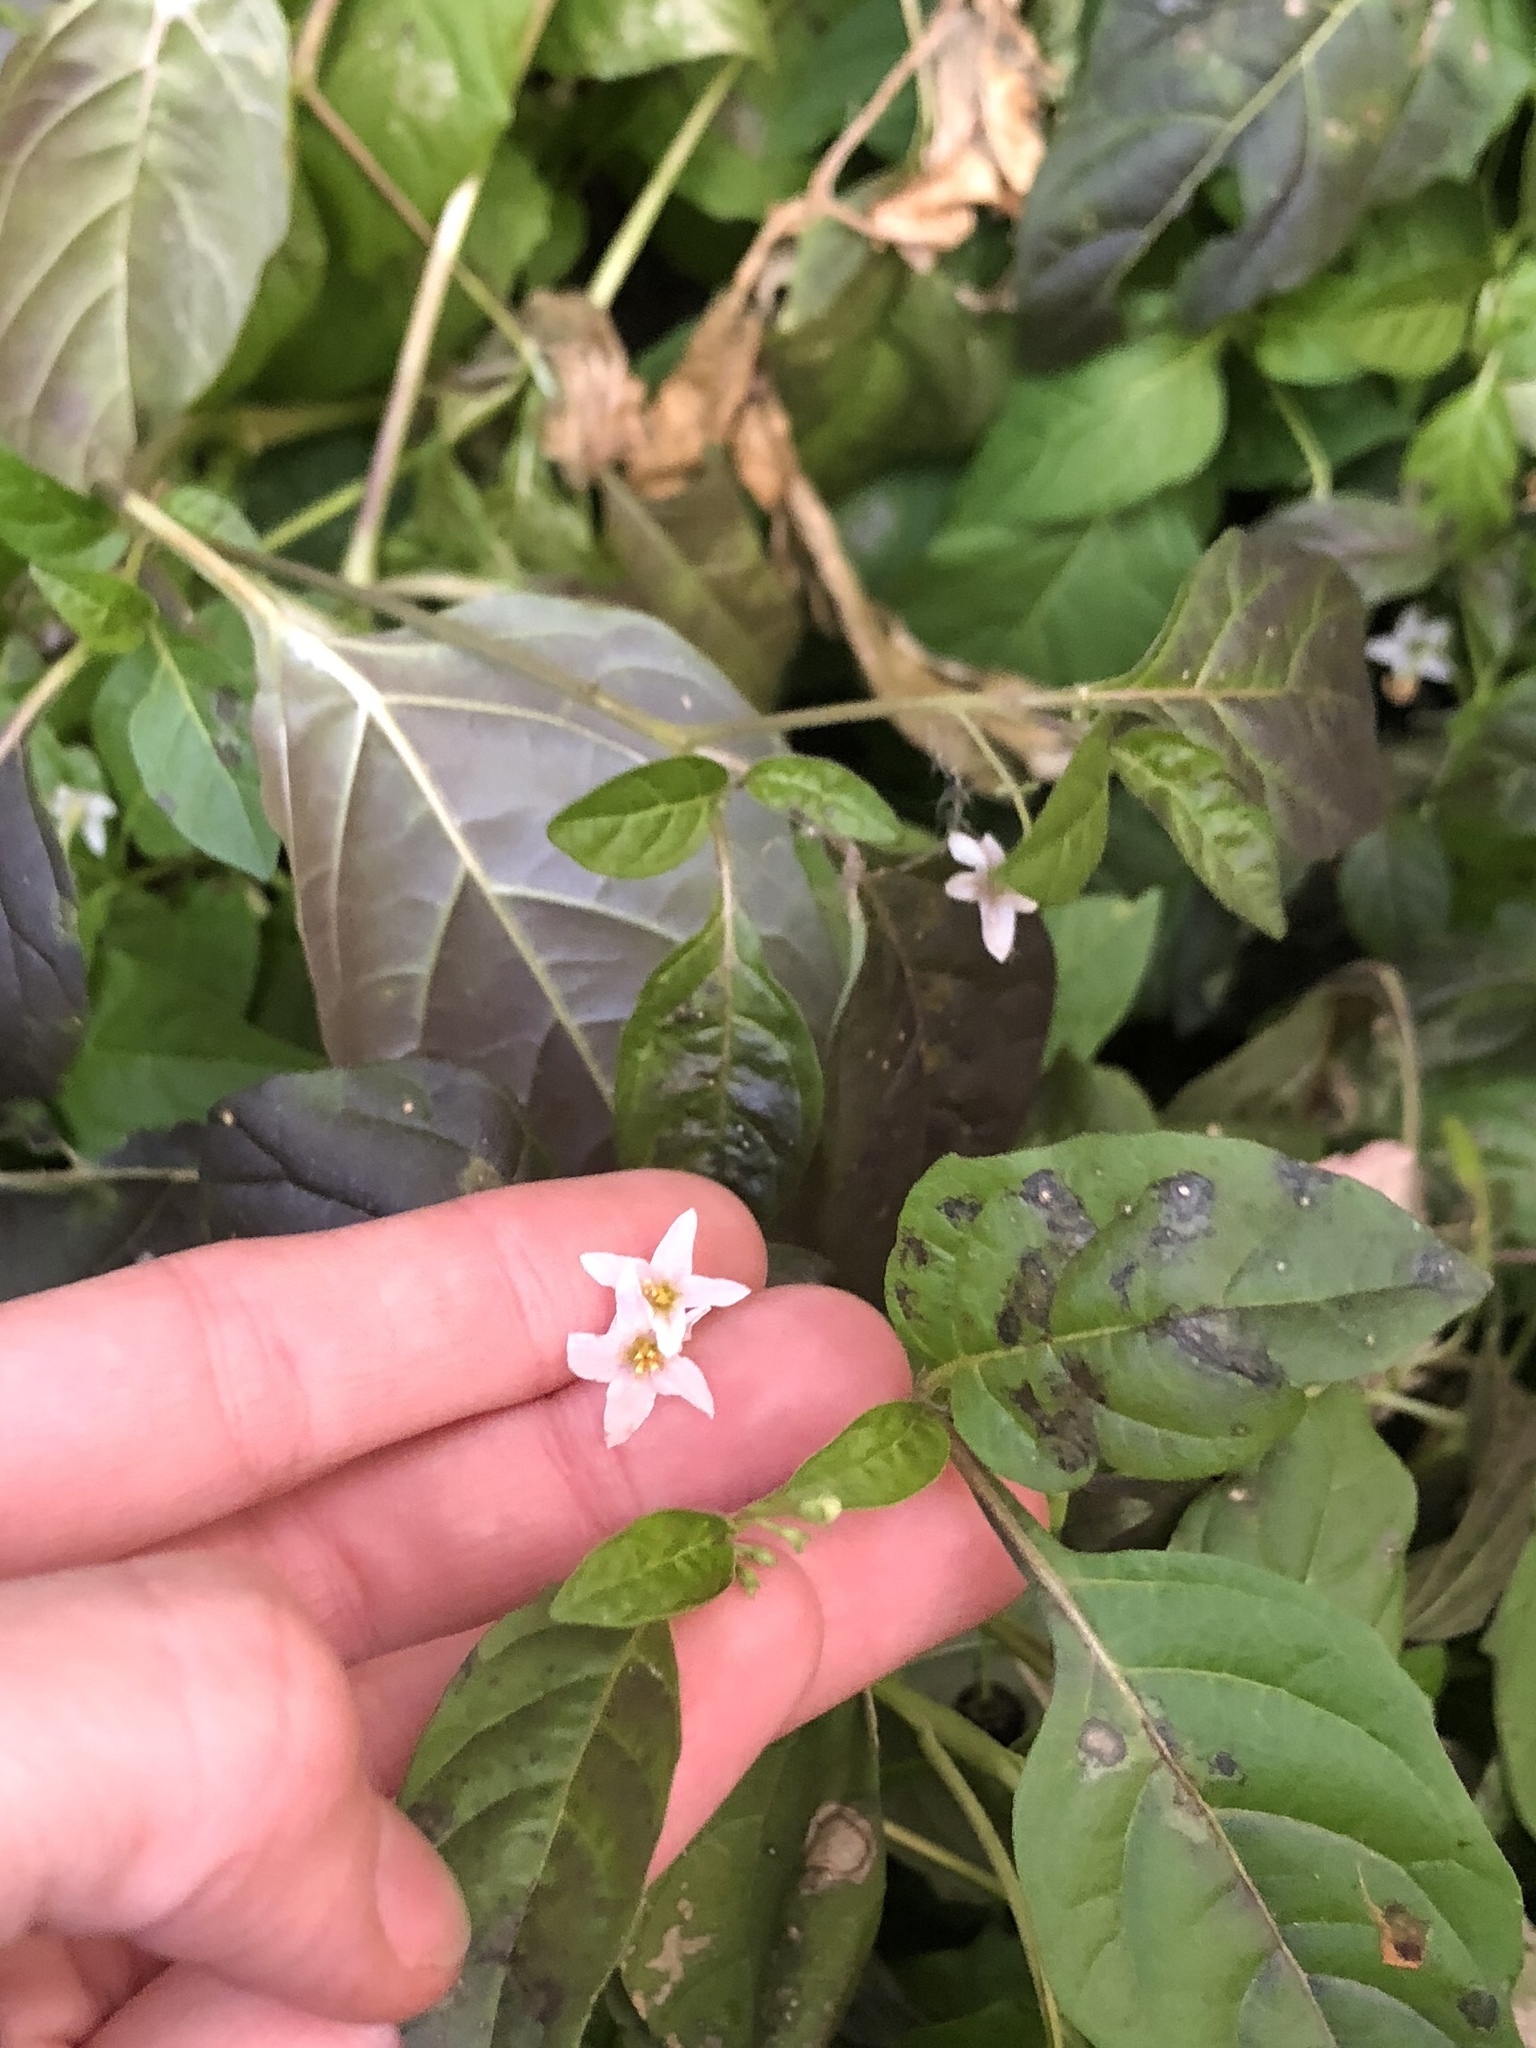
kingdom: Plantae
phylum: Tracheophyta
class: Magnoliopsida
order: Solanales
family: Solanaceae
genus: Solanum
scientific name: Solanum emulans
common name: Eastern black nightshade
